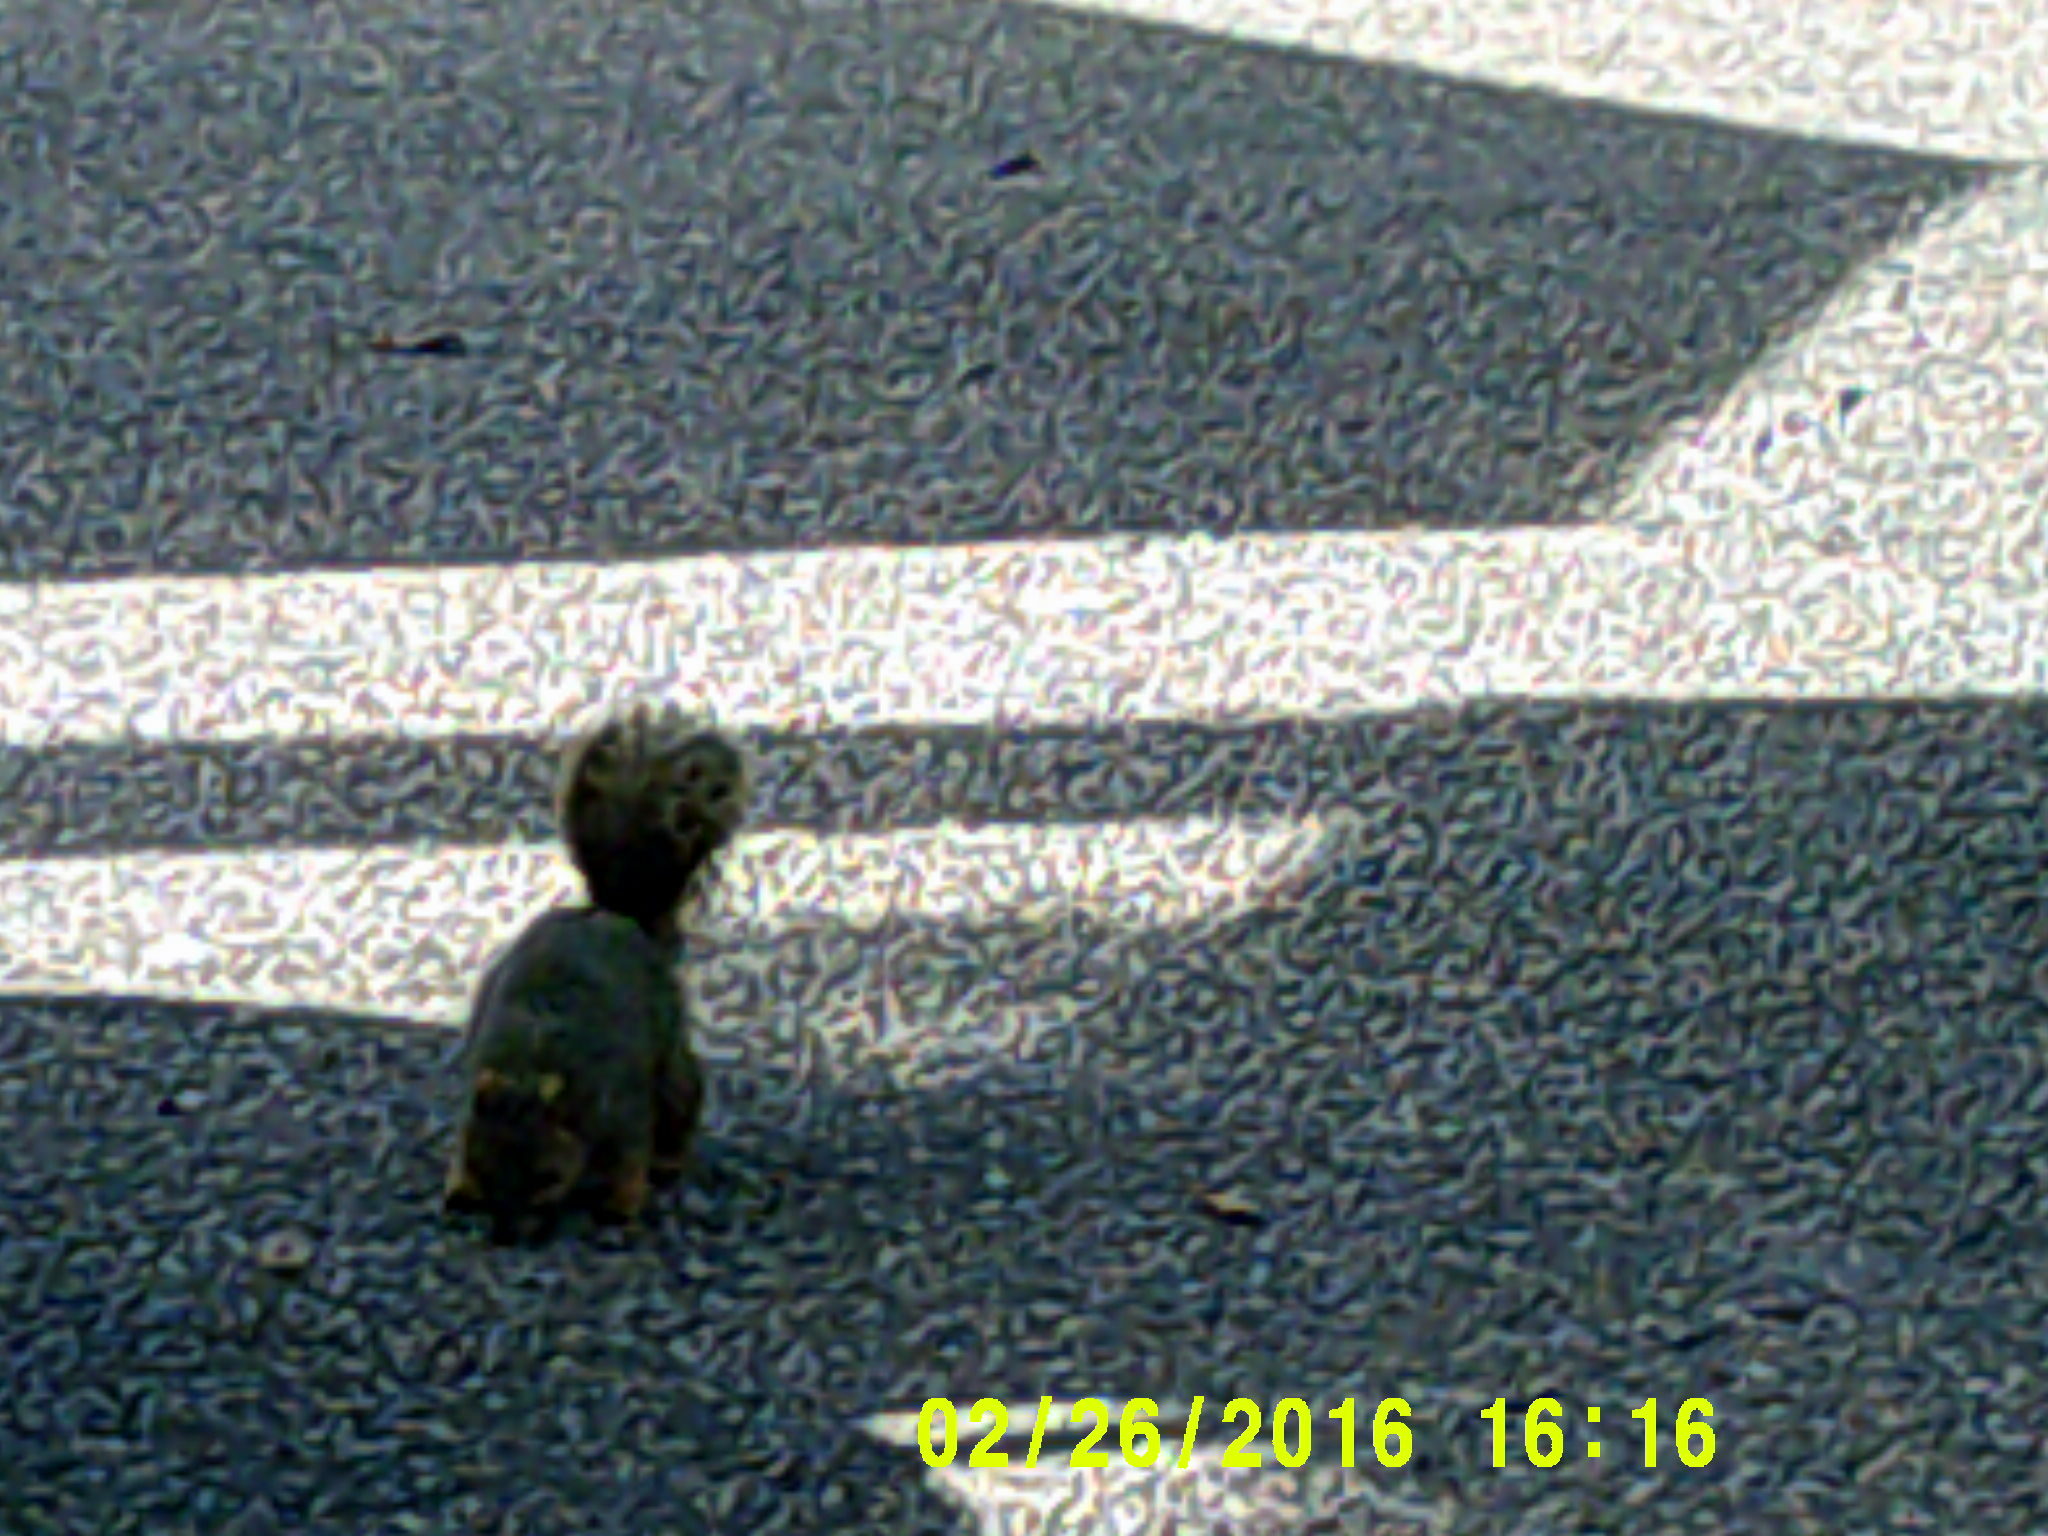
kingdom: Animalia
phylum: Chordata
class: Mammalia
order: Rodentia
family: Sciuridae
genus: Sciurus
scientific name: Sciurus niger
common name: Fox squirrel
